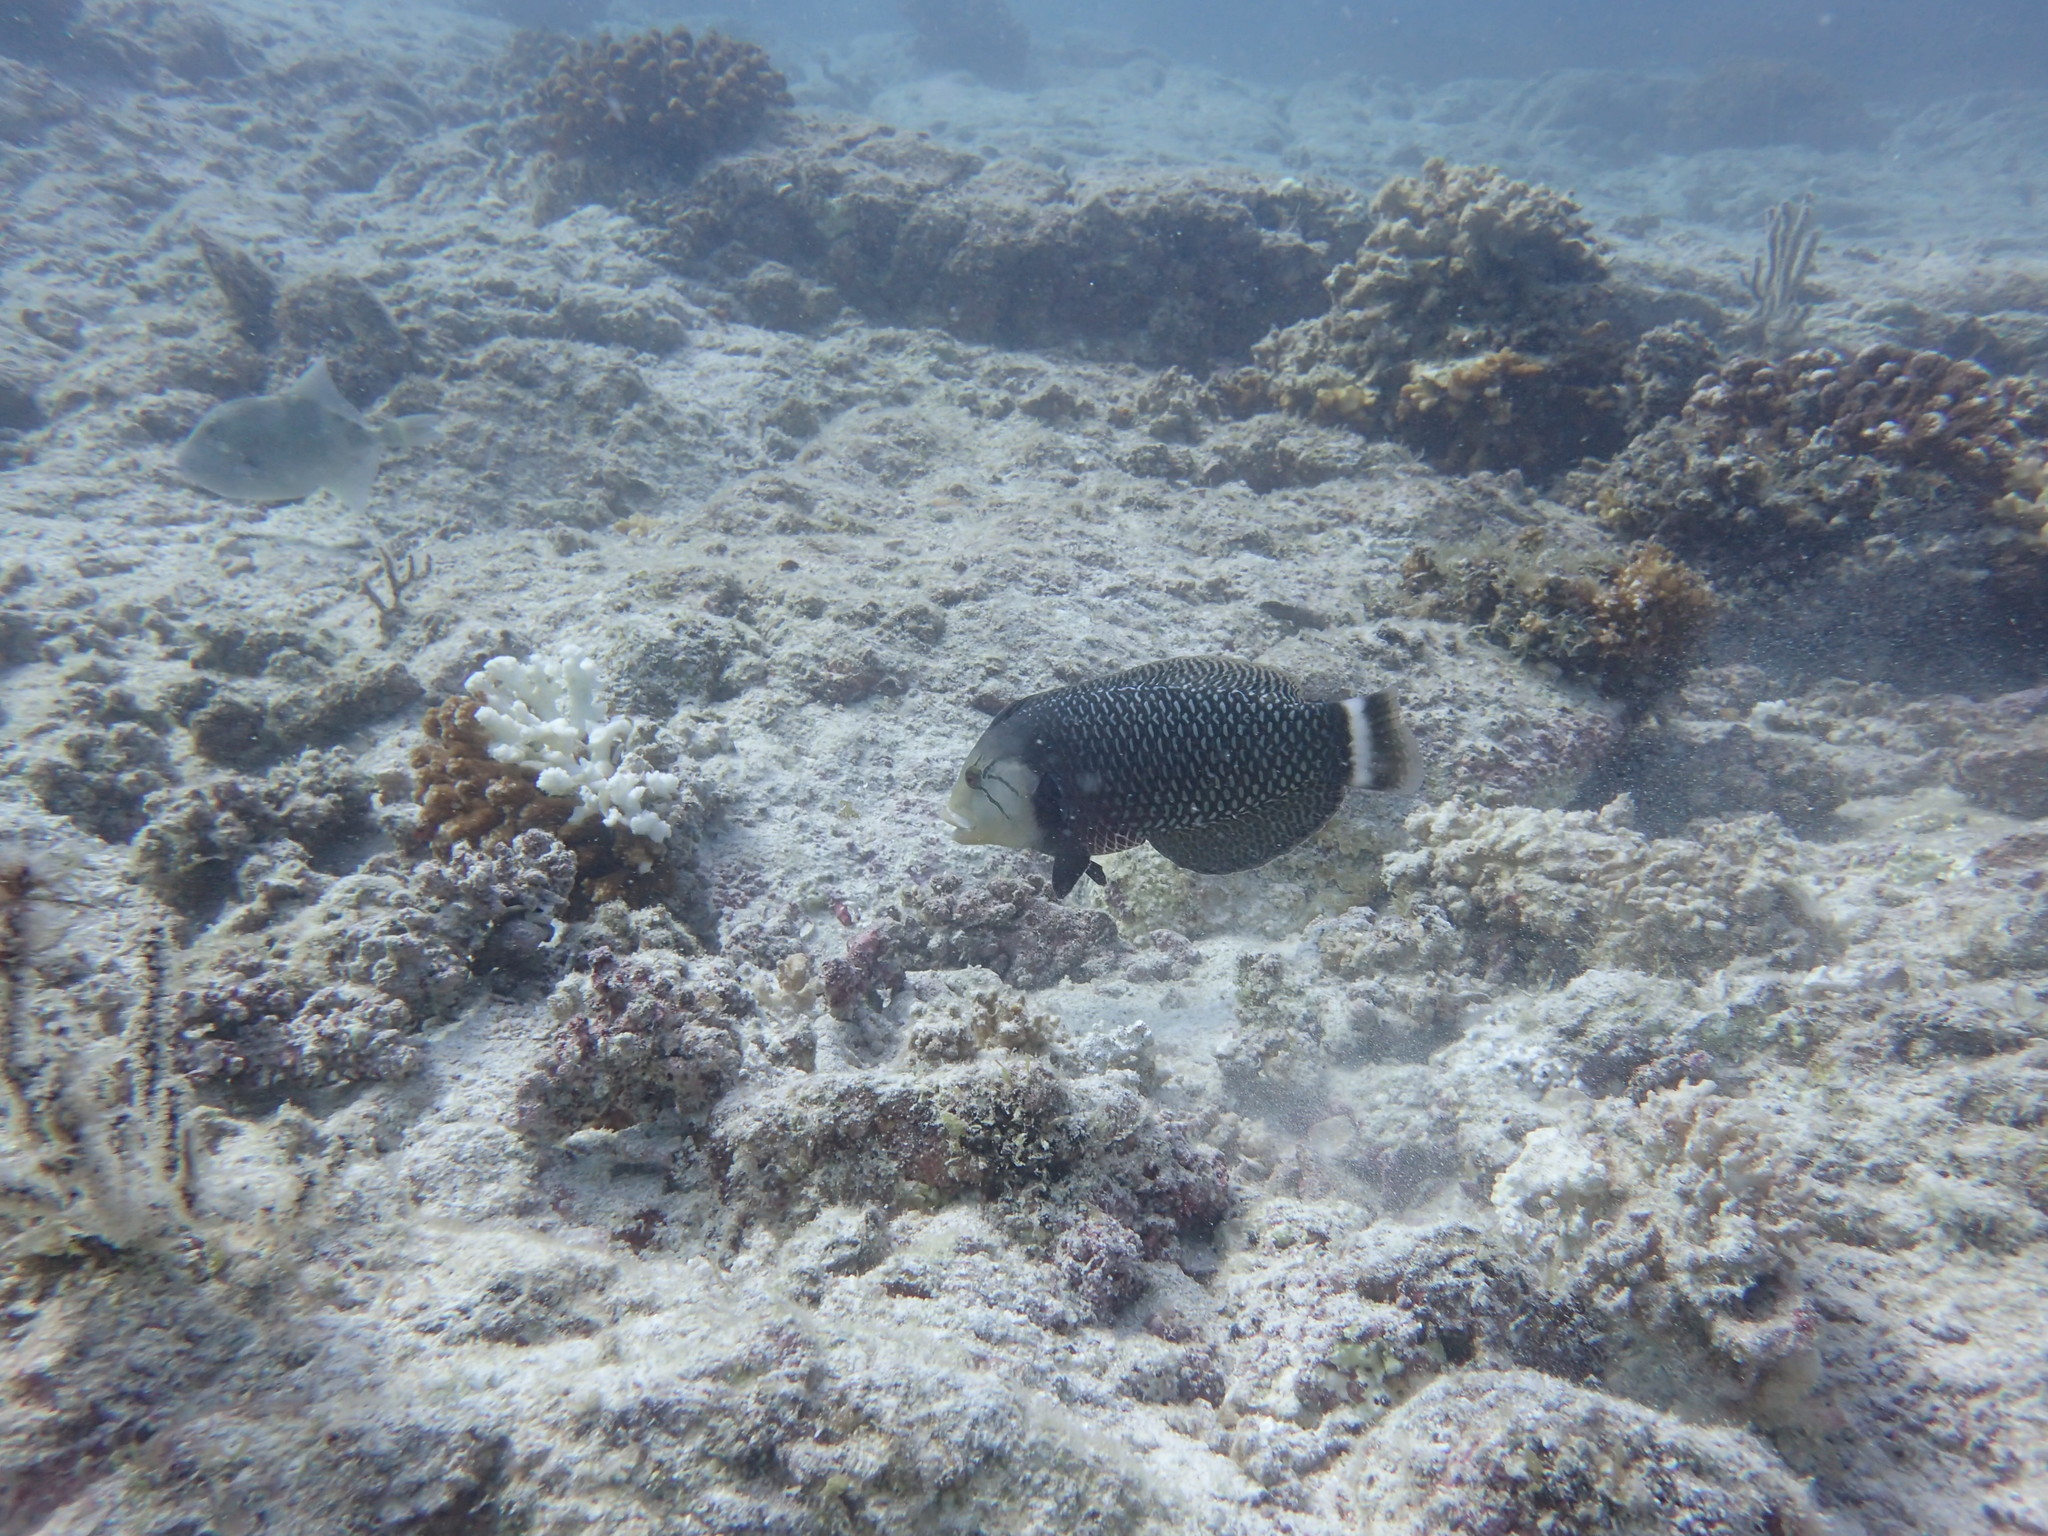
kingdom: Animalia
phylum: Chordata
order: Perciformes
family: Labridae
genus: Novaculichthys
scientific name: Novaculichthys taeniourus
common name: Rockmover wrasse
